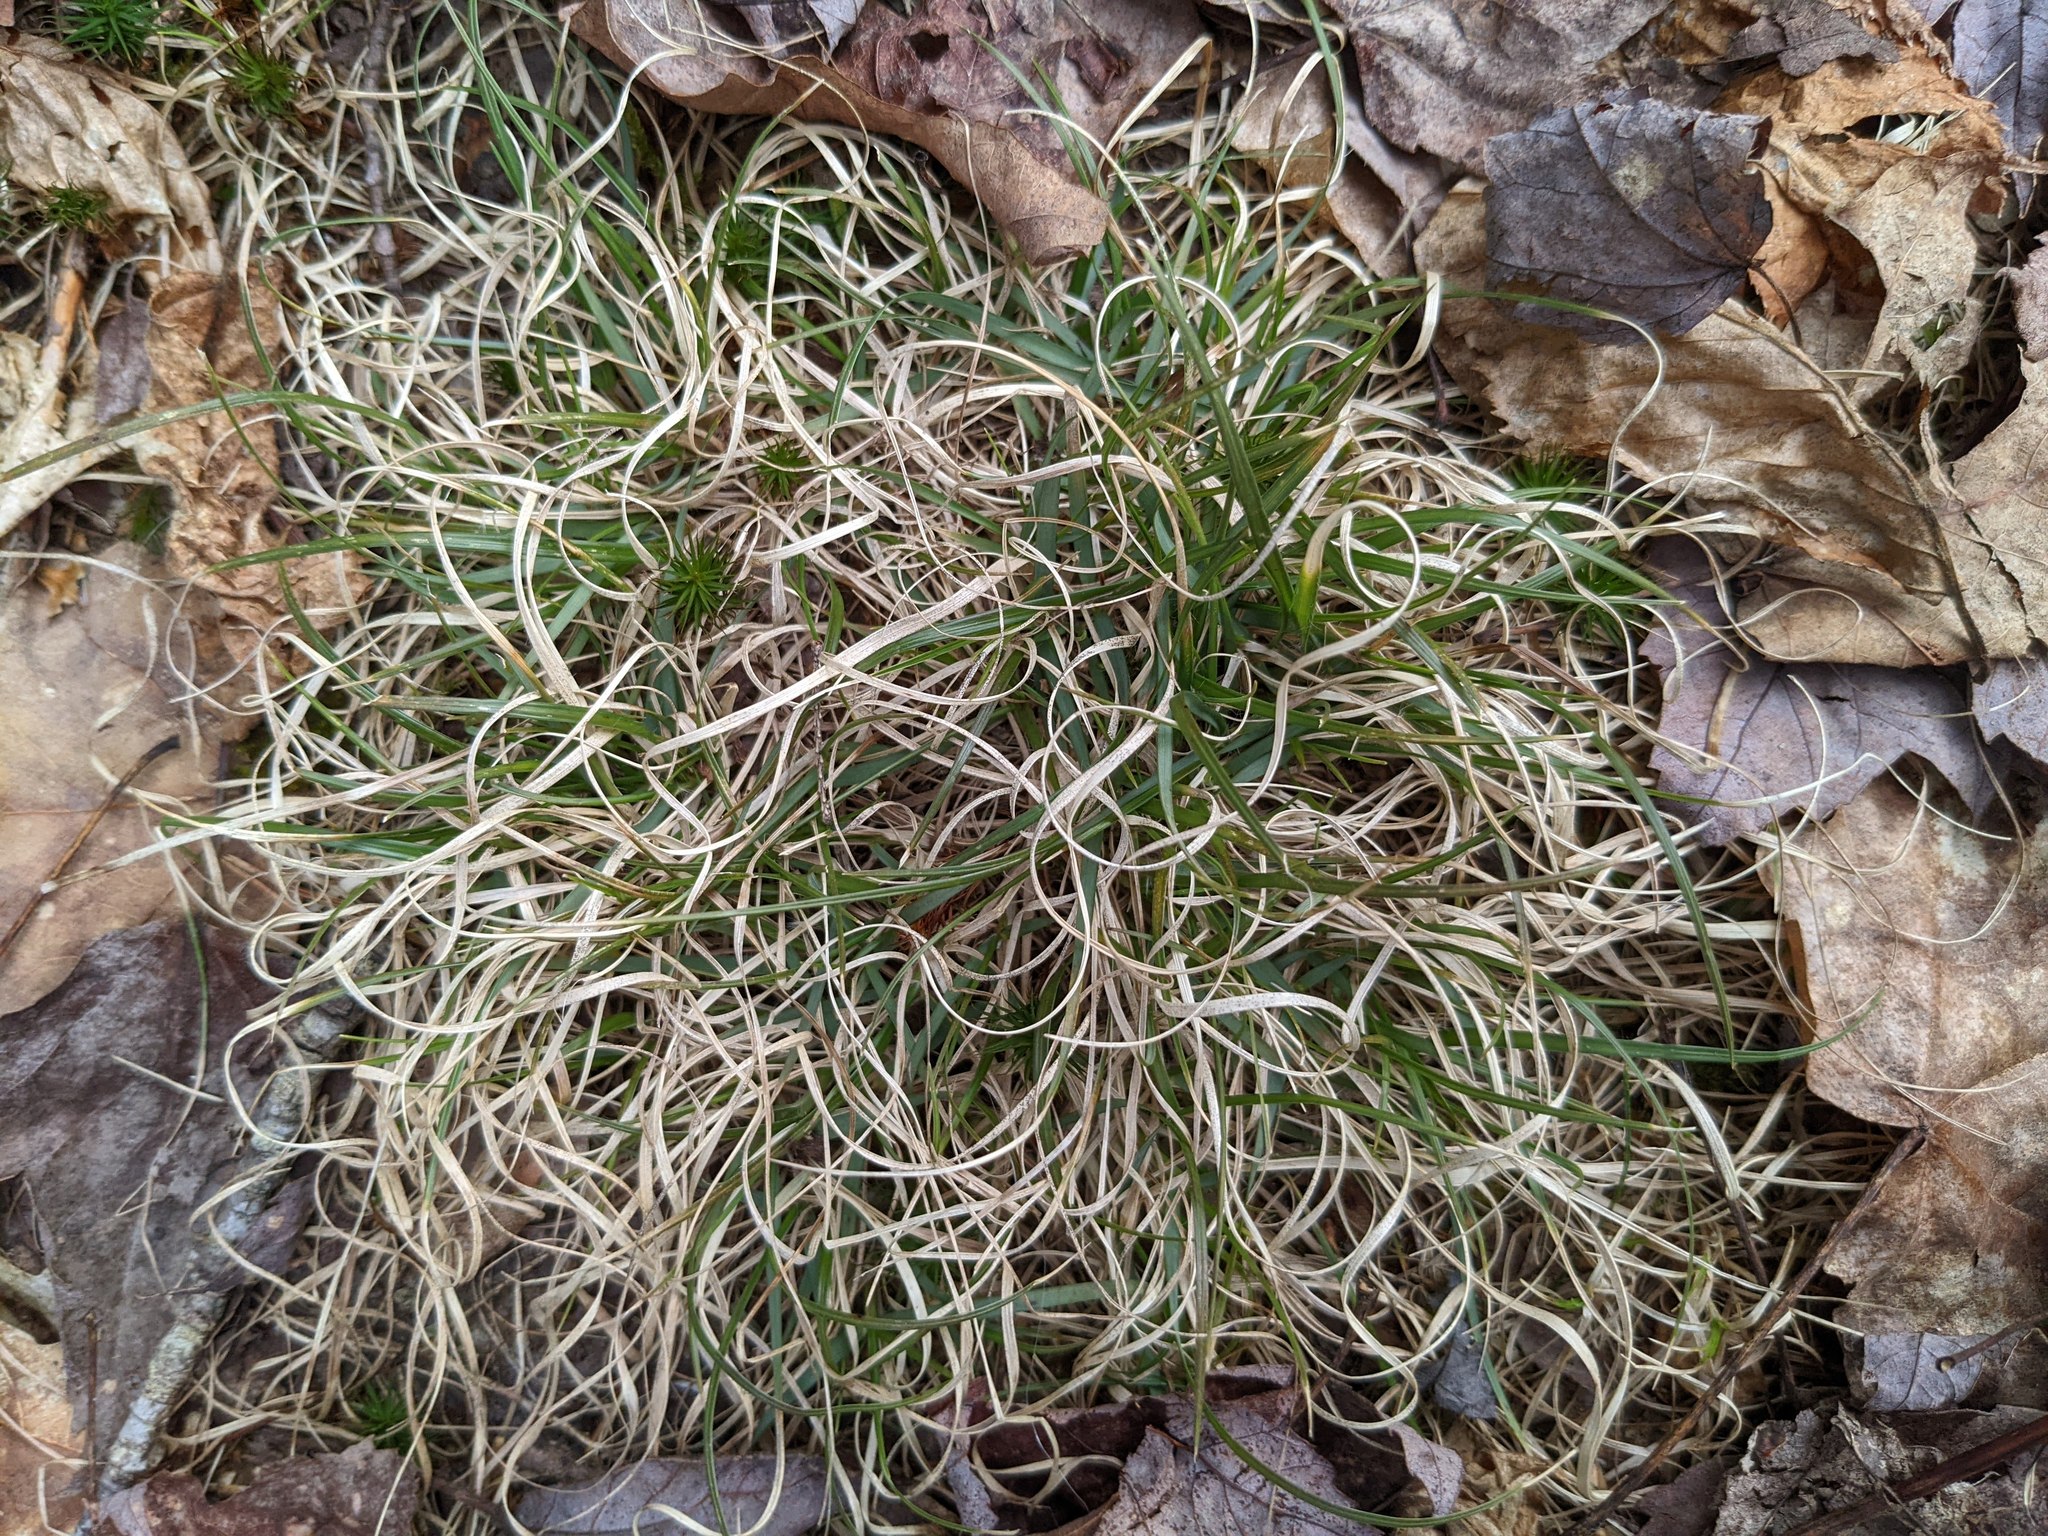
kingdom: Plantae
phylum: Tracheophyta
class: Liliopsida
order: Poales
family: Poaceae
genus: Danthonia
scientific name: Danthonia spicata
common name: Common wild oatgrass
